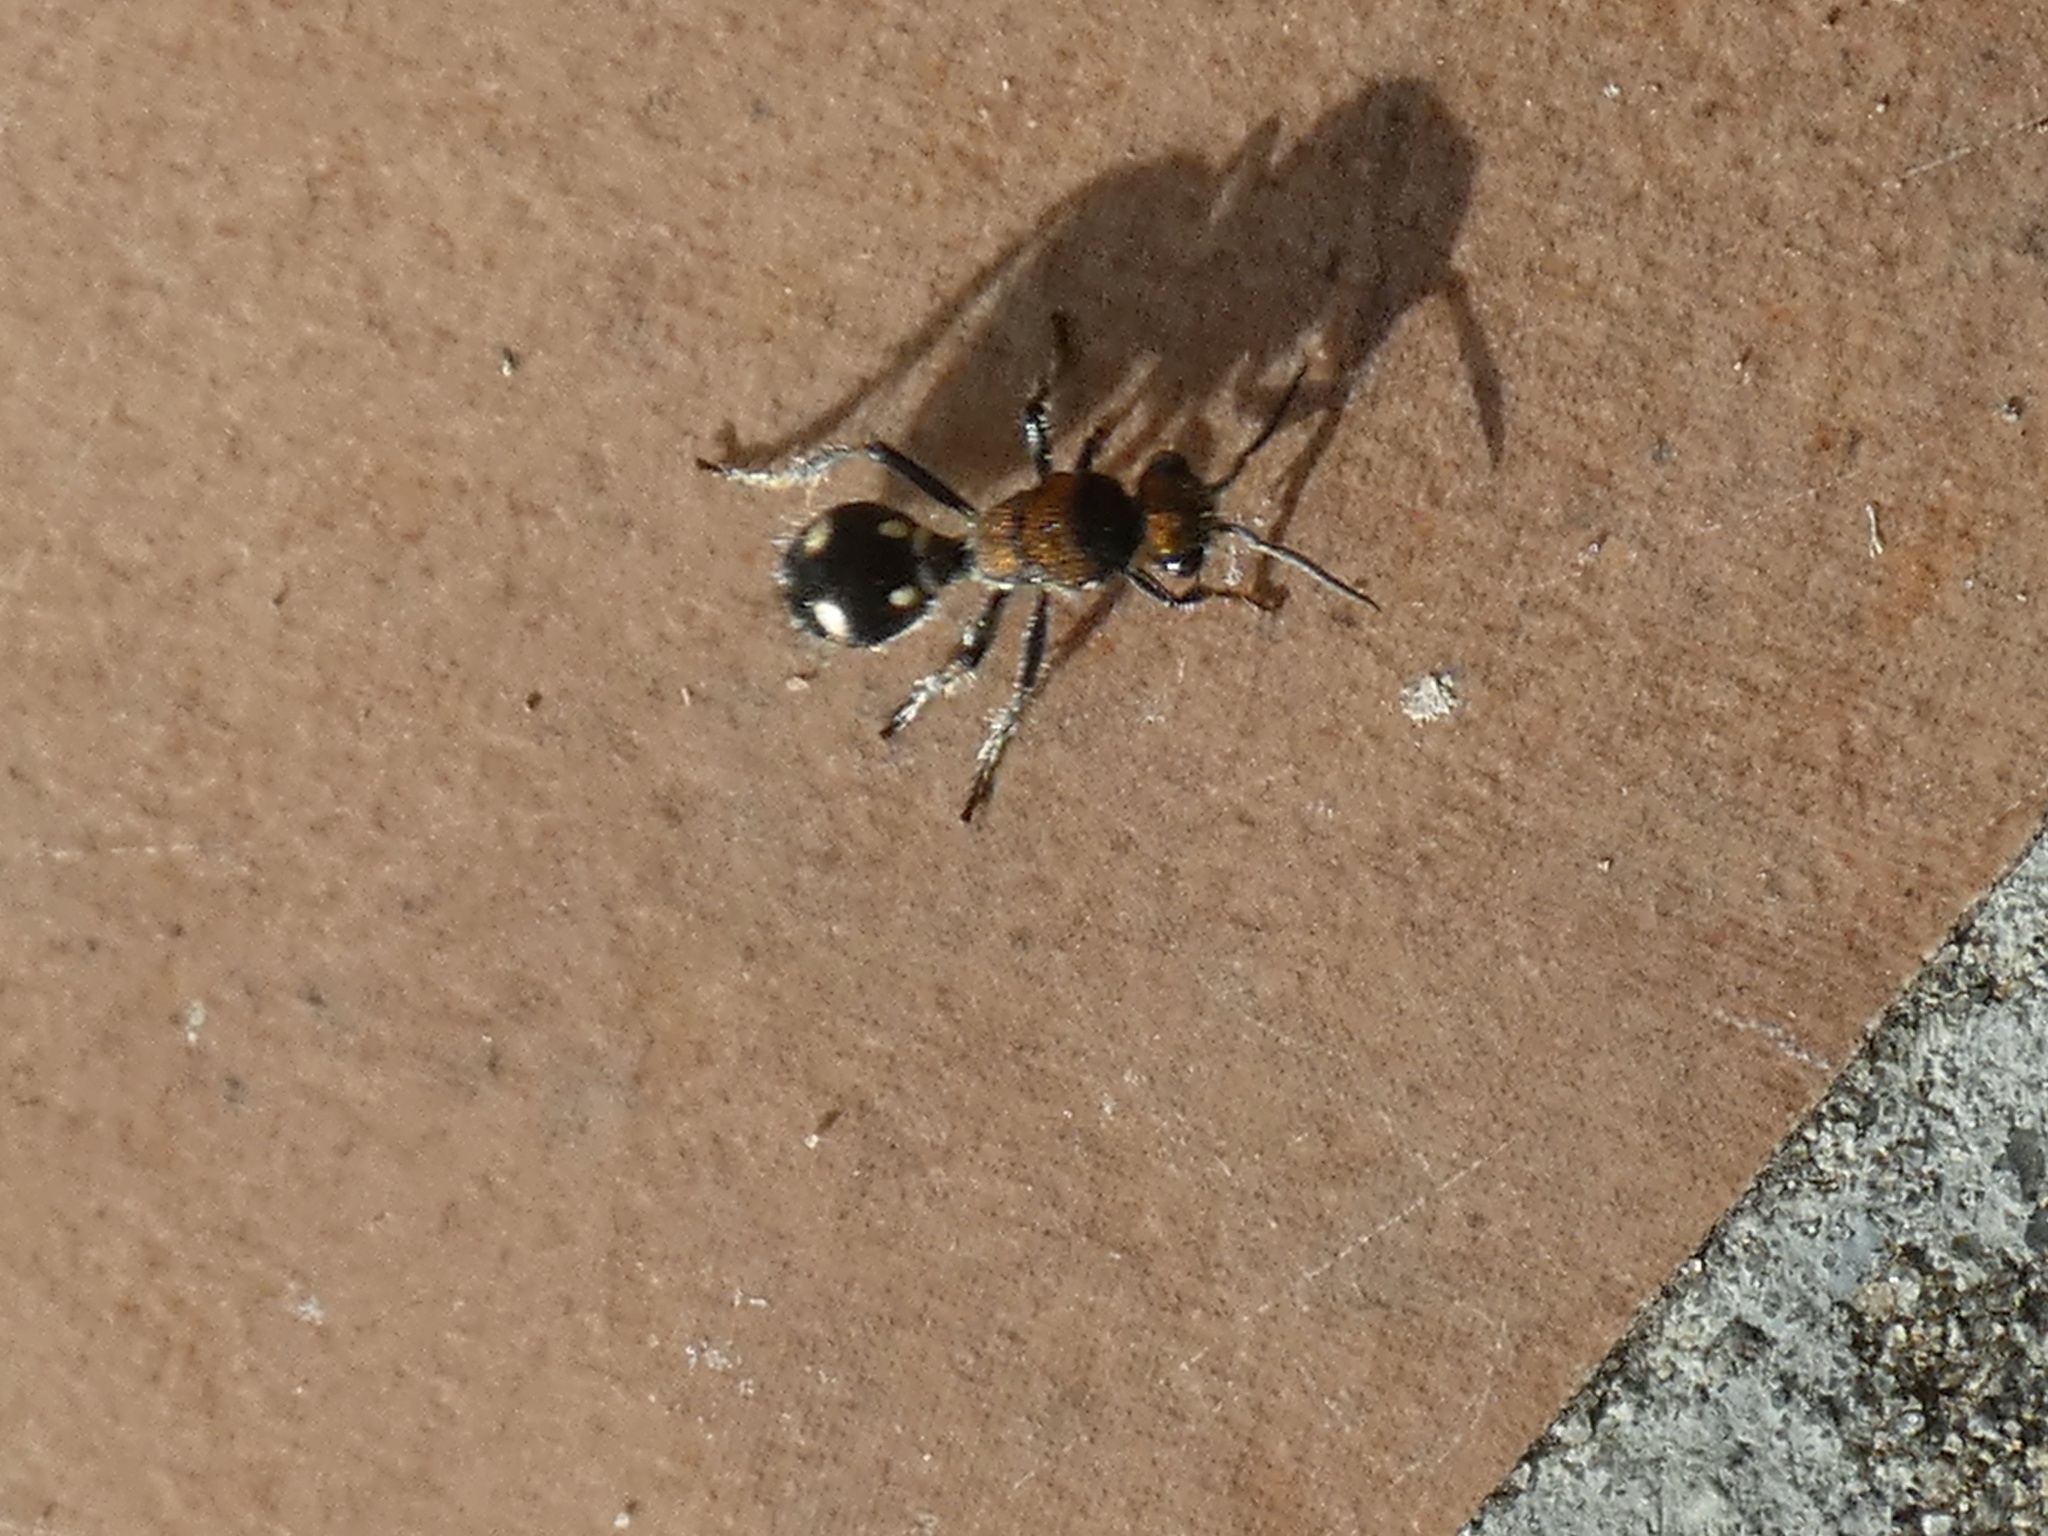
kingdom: Animalia
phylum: Arthropoda
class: Insecta
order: Hymenoptera
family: Mutillidae
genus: Traumatomutilla
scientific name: Traumatomutilla
